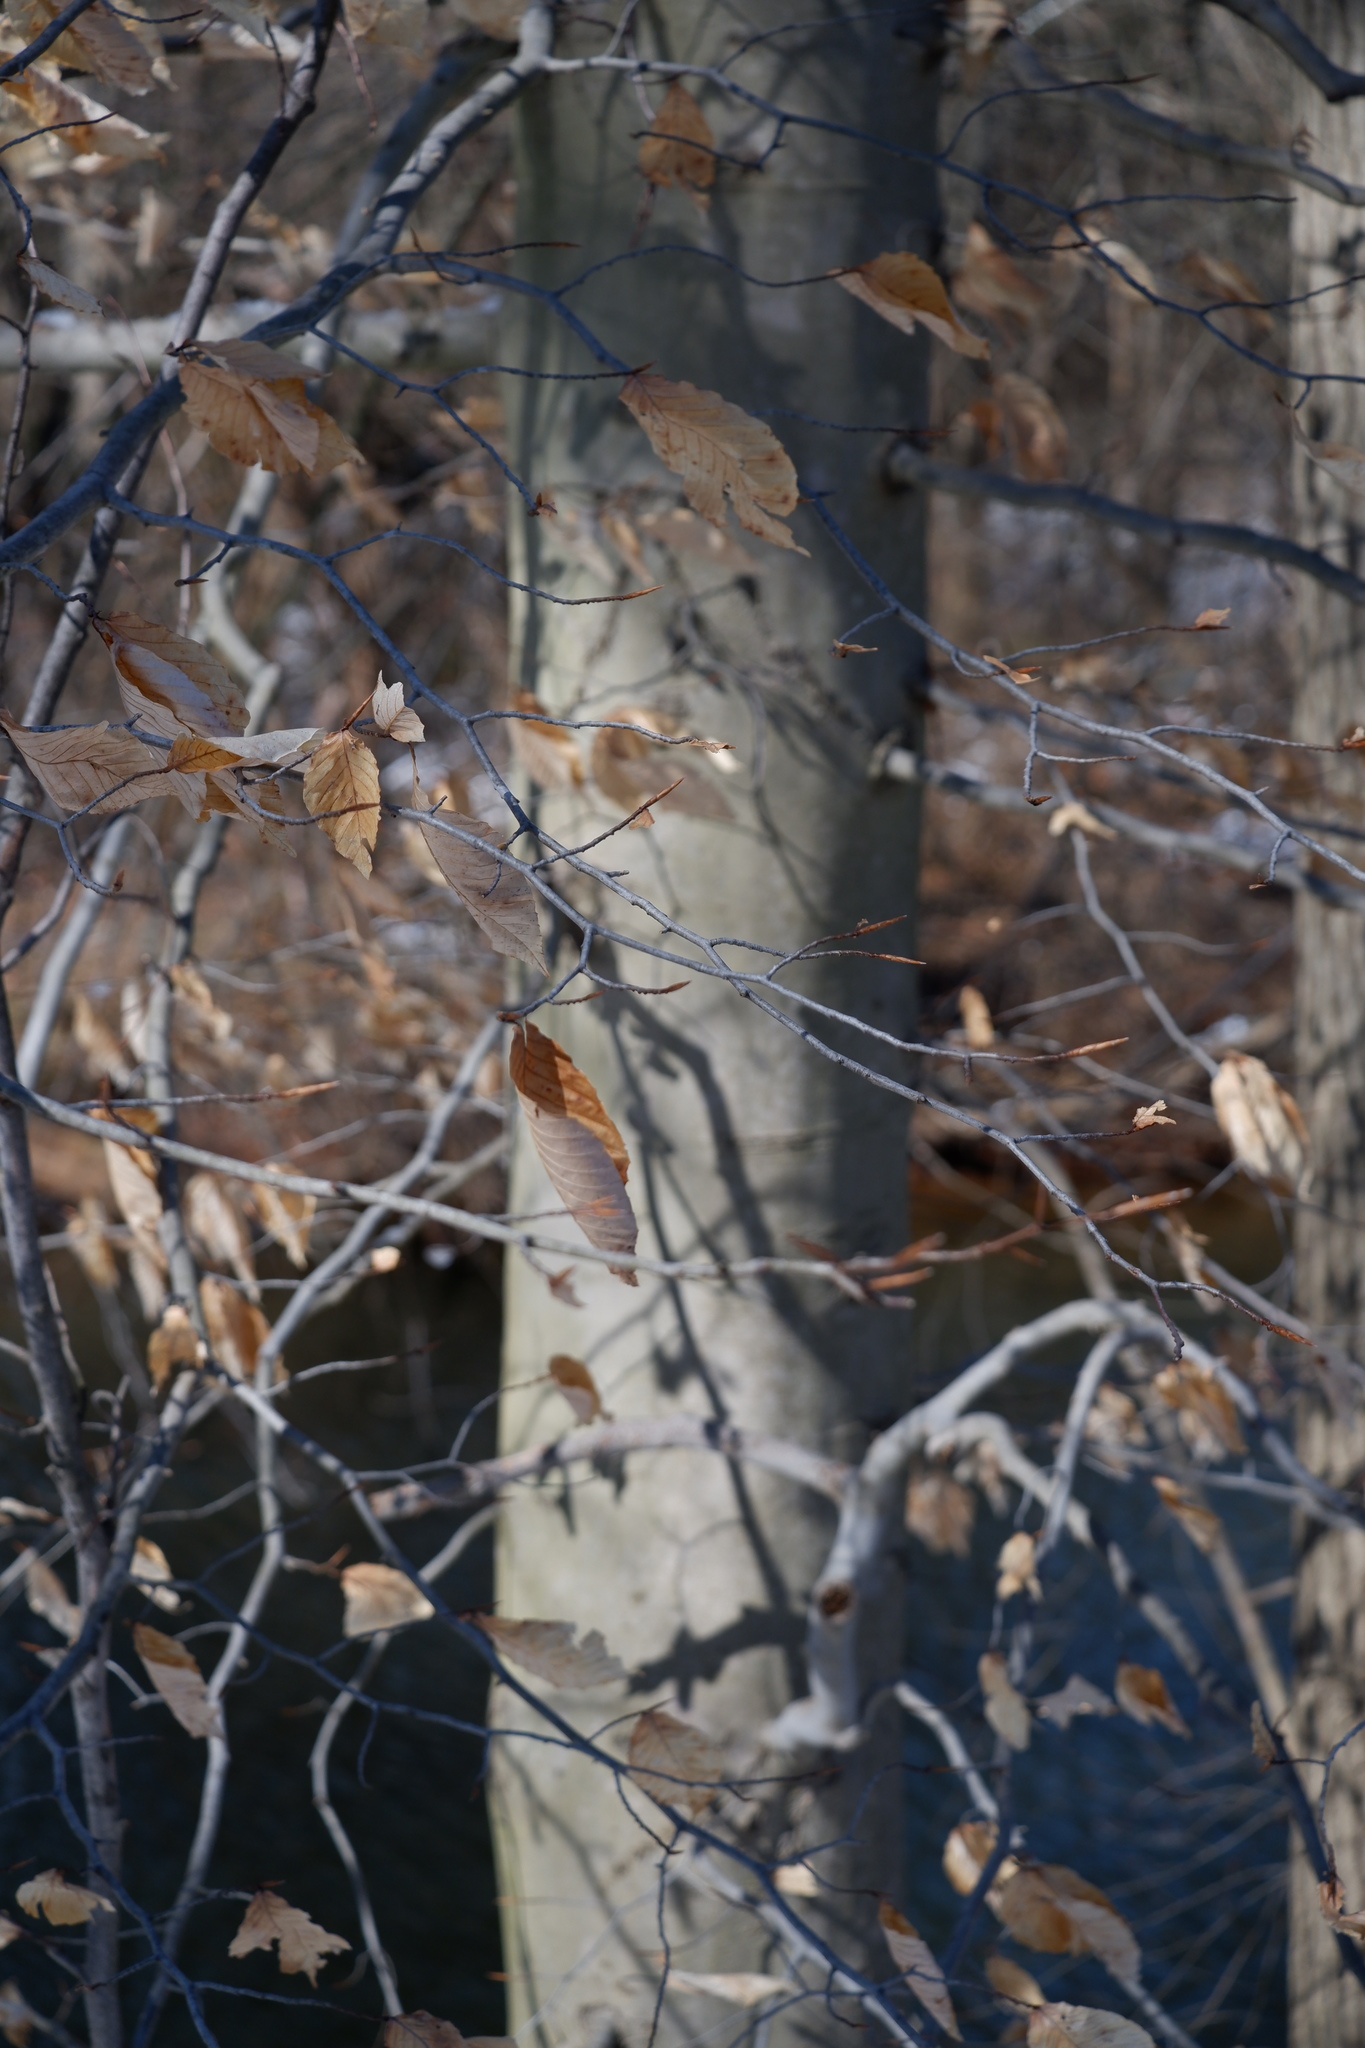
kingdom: Plantae
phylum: Tracheophyta
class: Magnoliopsida
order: Fagales
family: Fagaceae
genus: Fagus
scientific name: Fagus grandifolia
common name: American beech
